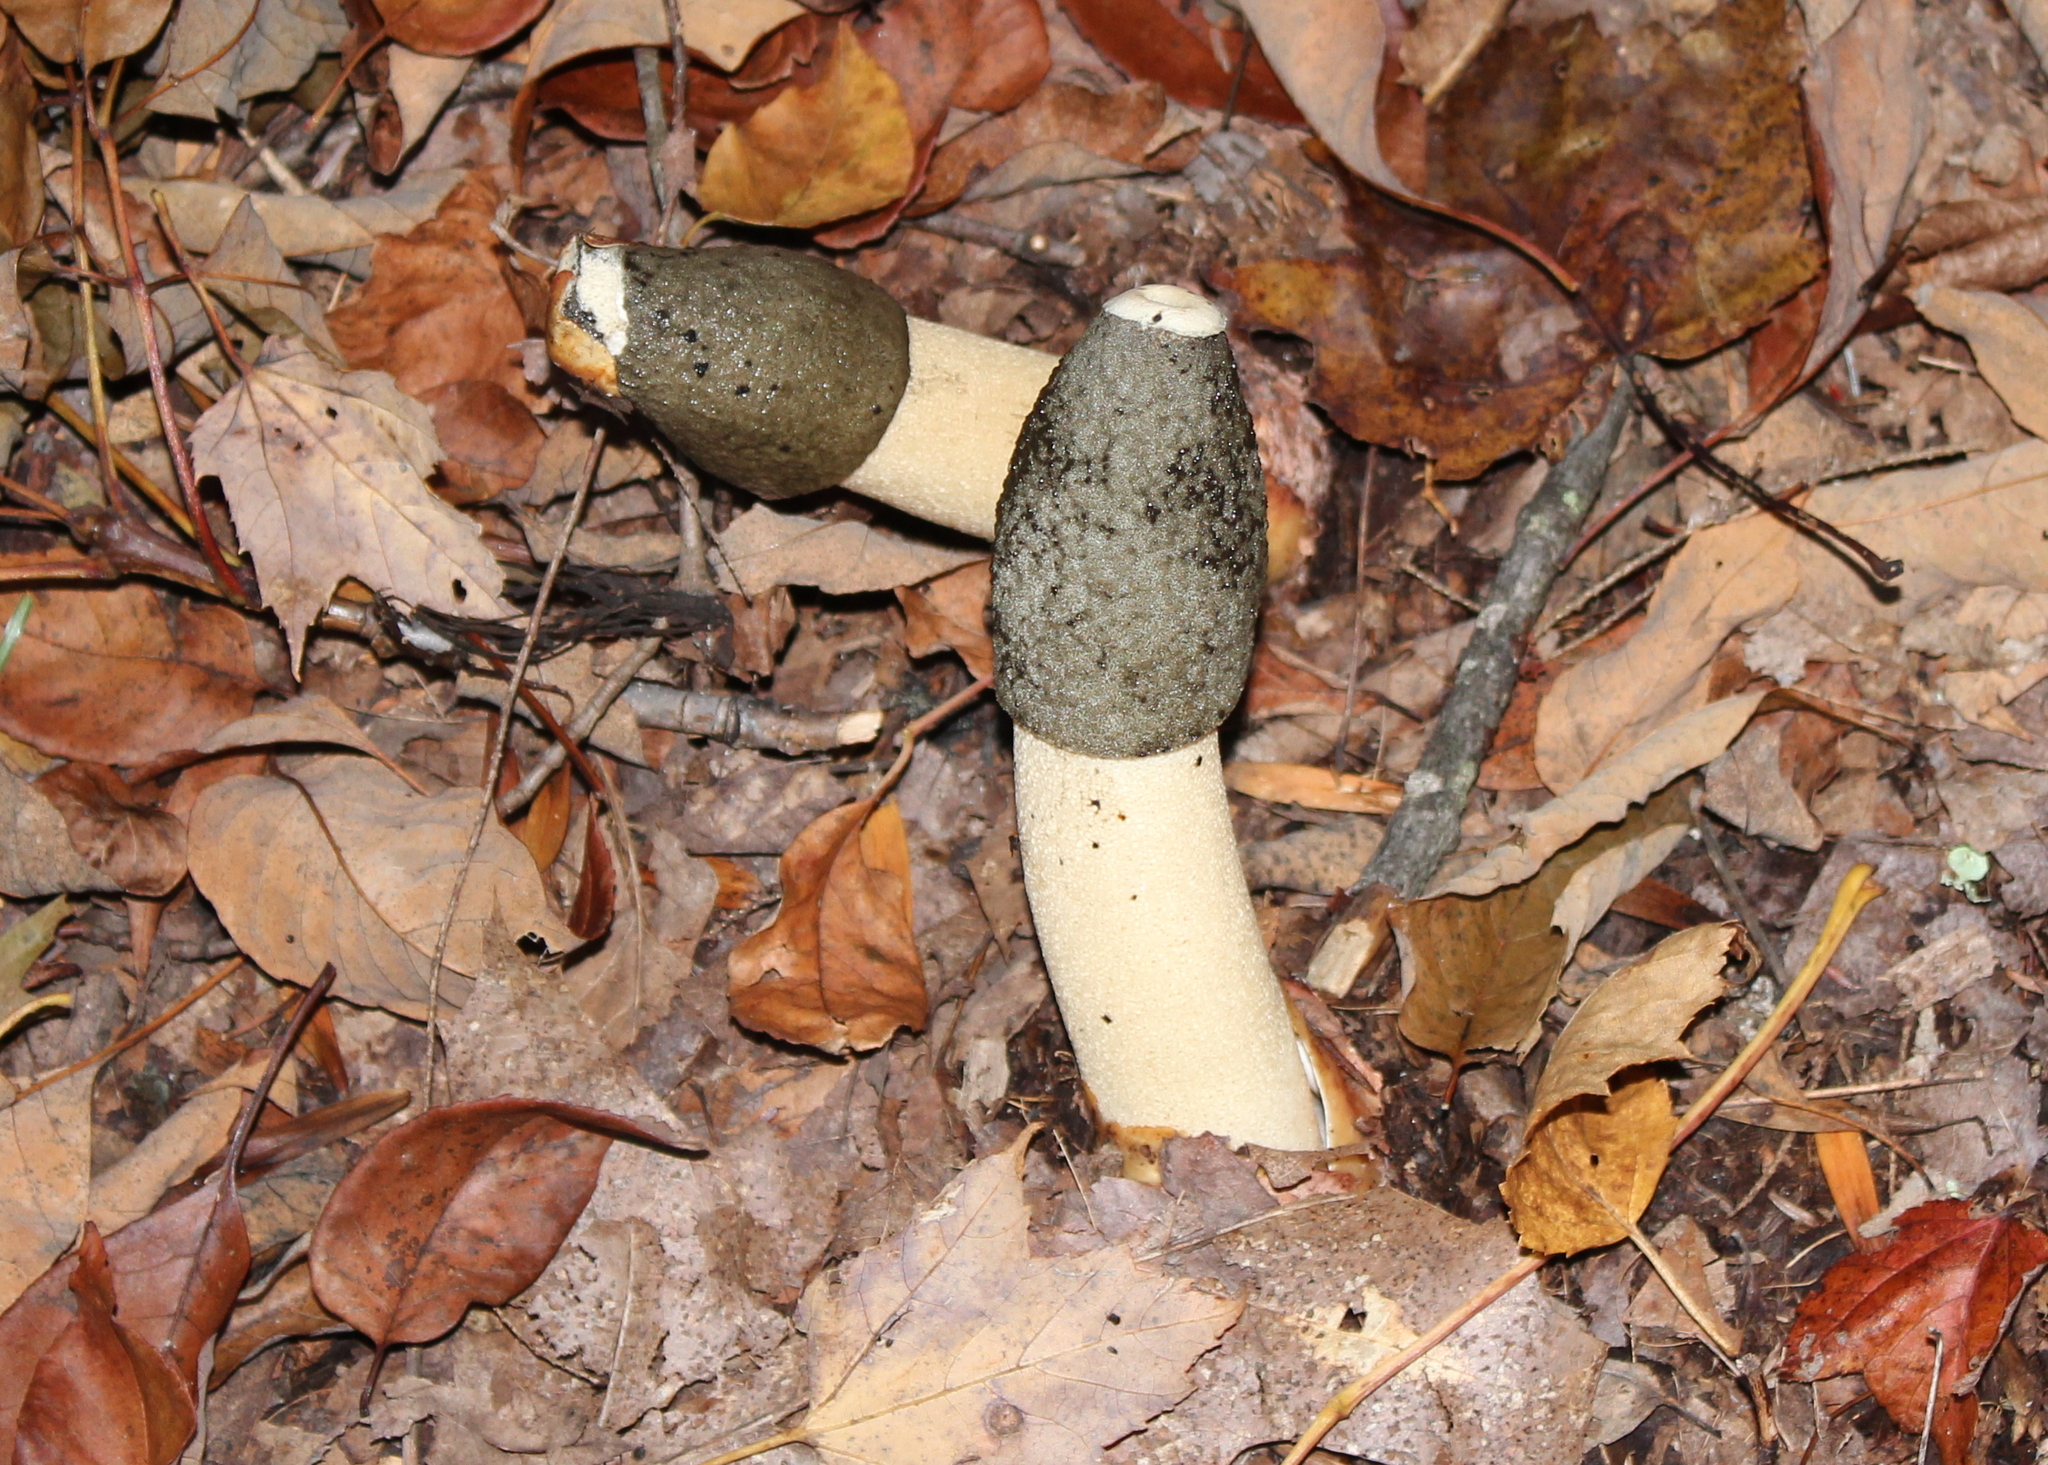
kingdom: Fungi
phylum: Basidiomycota
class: Agaricomycetes
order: Phallales
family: Phallaceae
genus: Phallus
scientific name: Phallus ravenelii
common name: Ravenel's stinkhorn
